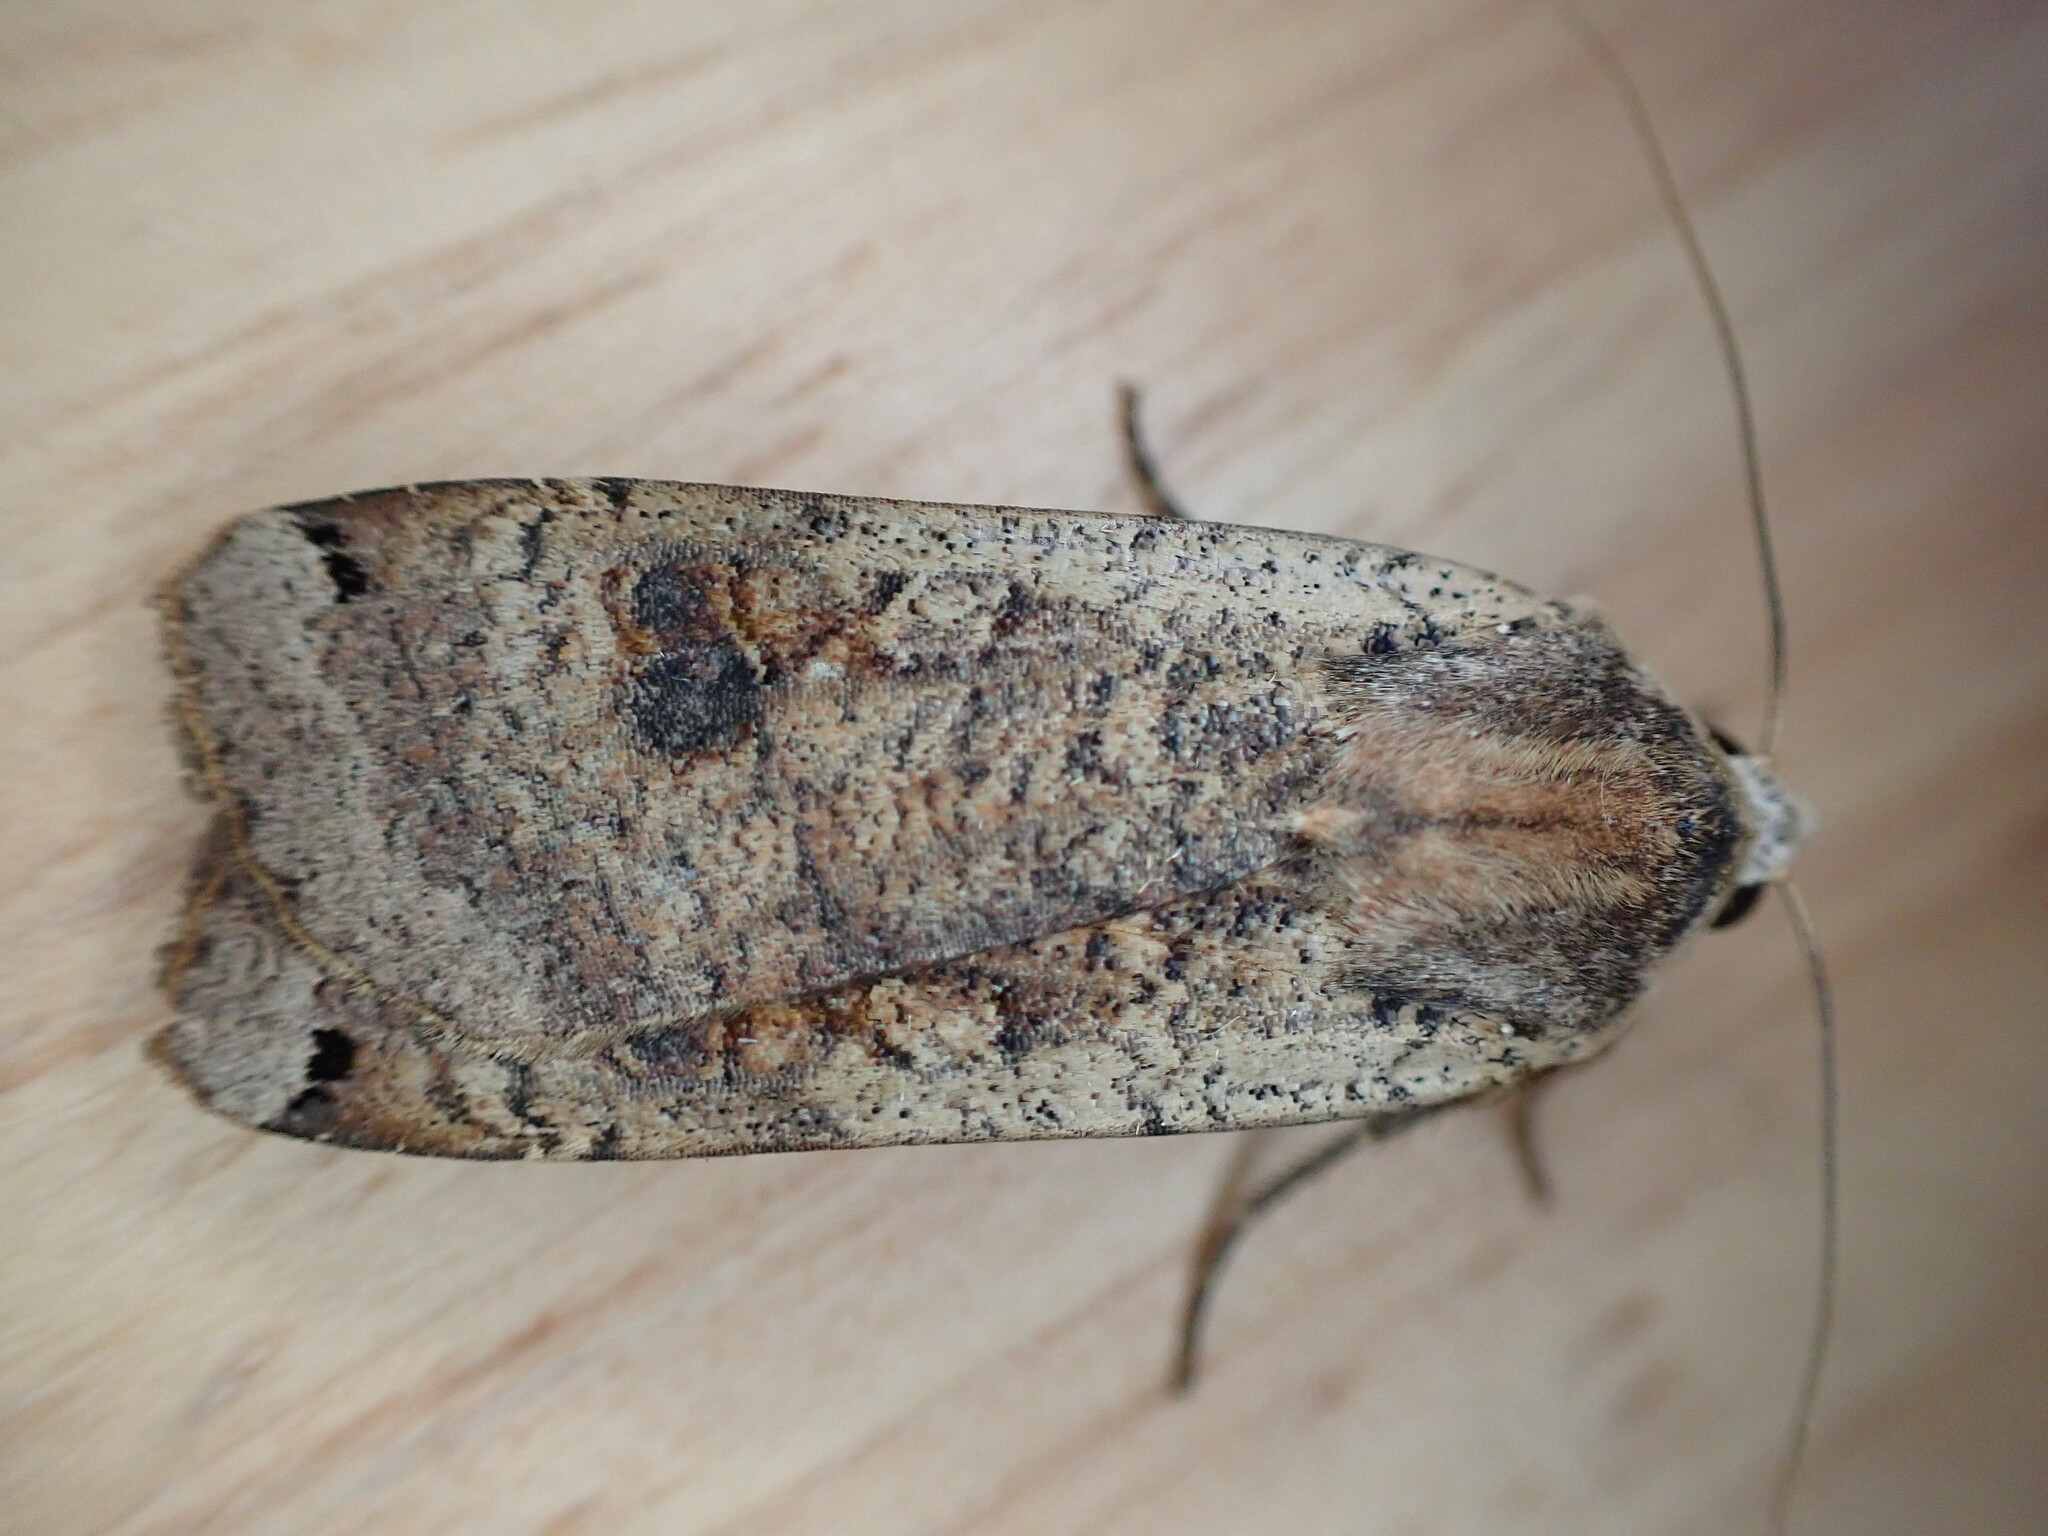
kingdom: Animalia
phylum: Arthropoda
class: Insecta
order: Lepidoptera
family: Noctuidae
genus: Noctua
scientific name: Noctua pronuba
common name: Large yellow underwing
